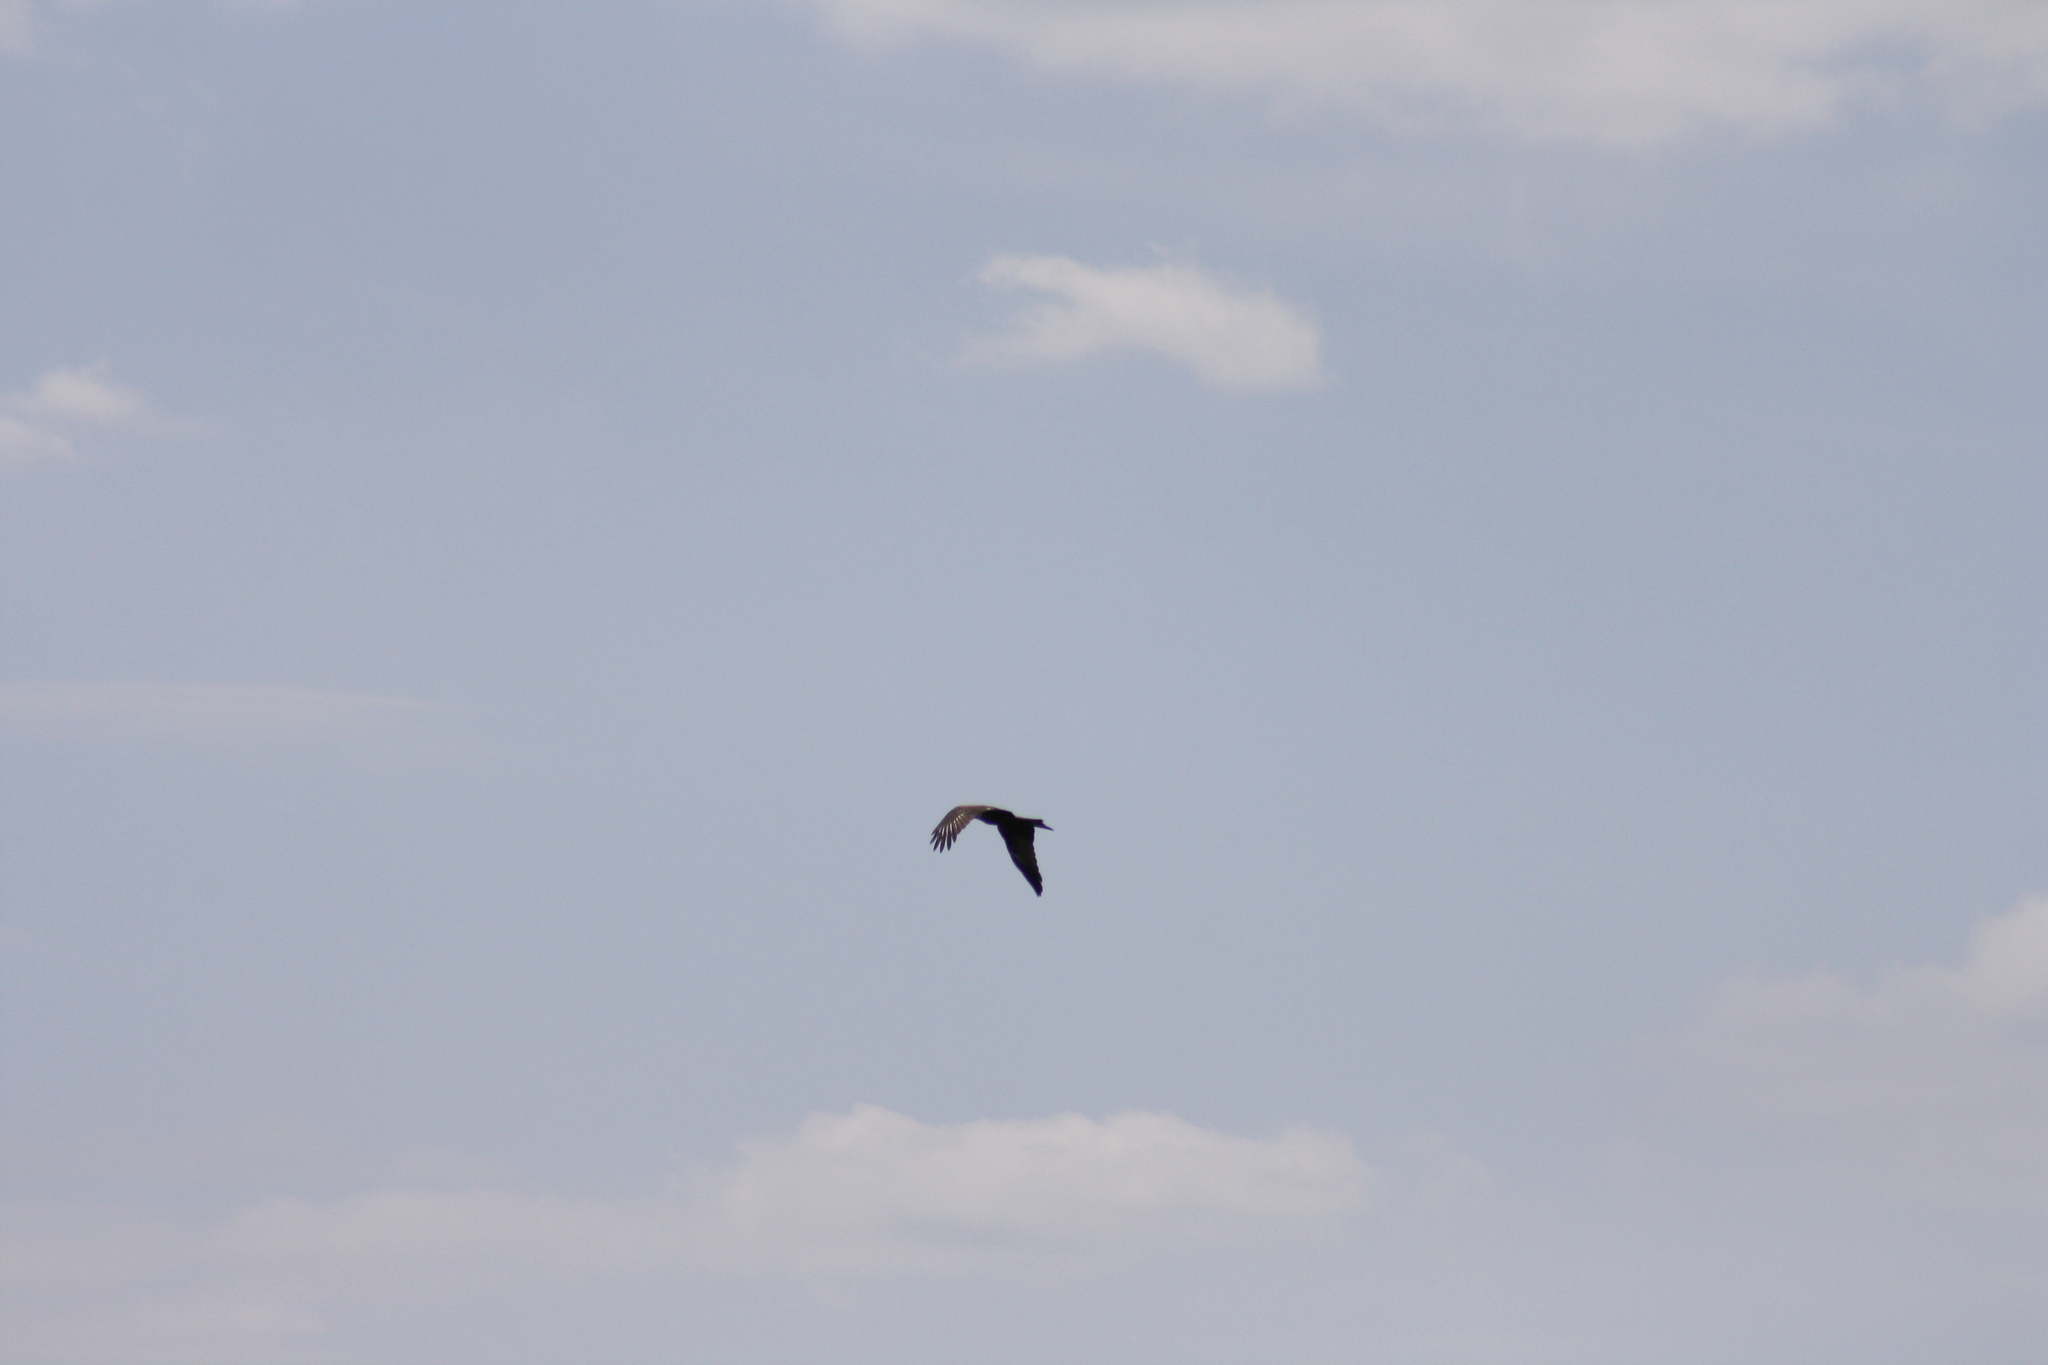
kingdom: Animalia
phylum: Chordata
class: Aves
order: Accipitriformes
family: Accipitridae
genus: Milvus
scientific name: Milvus migrans
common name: Black kite
